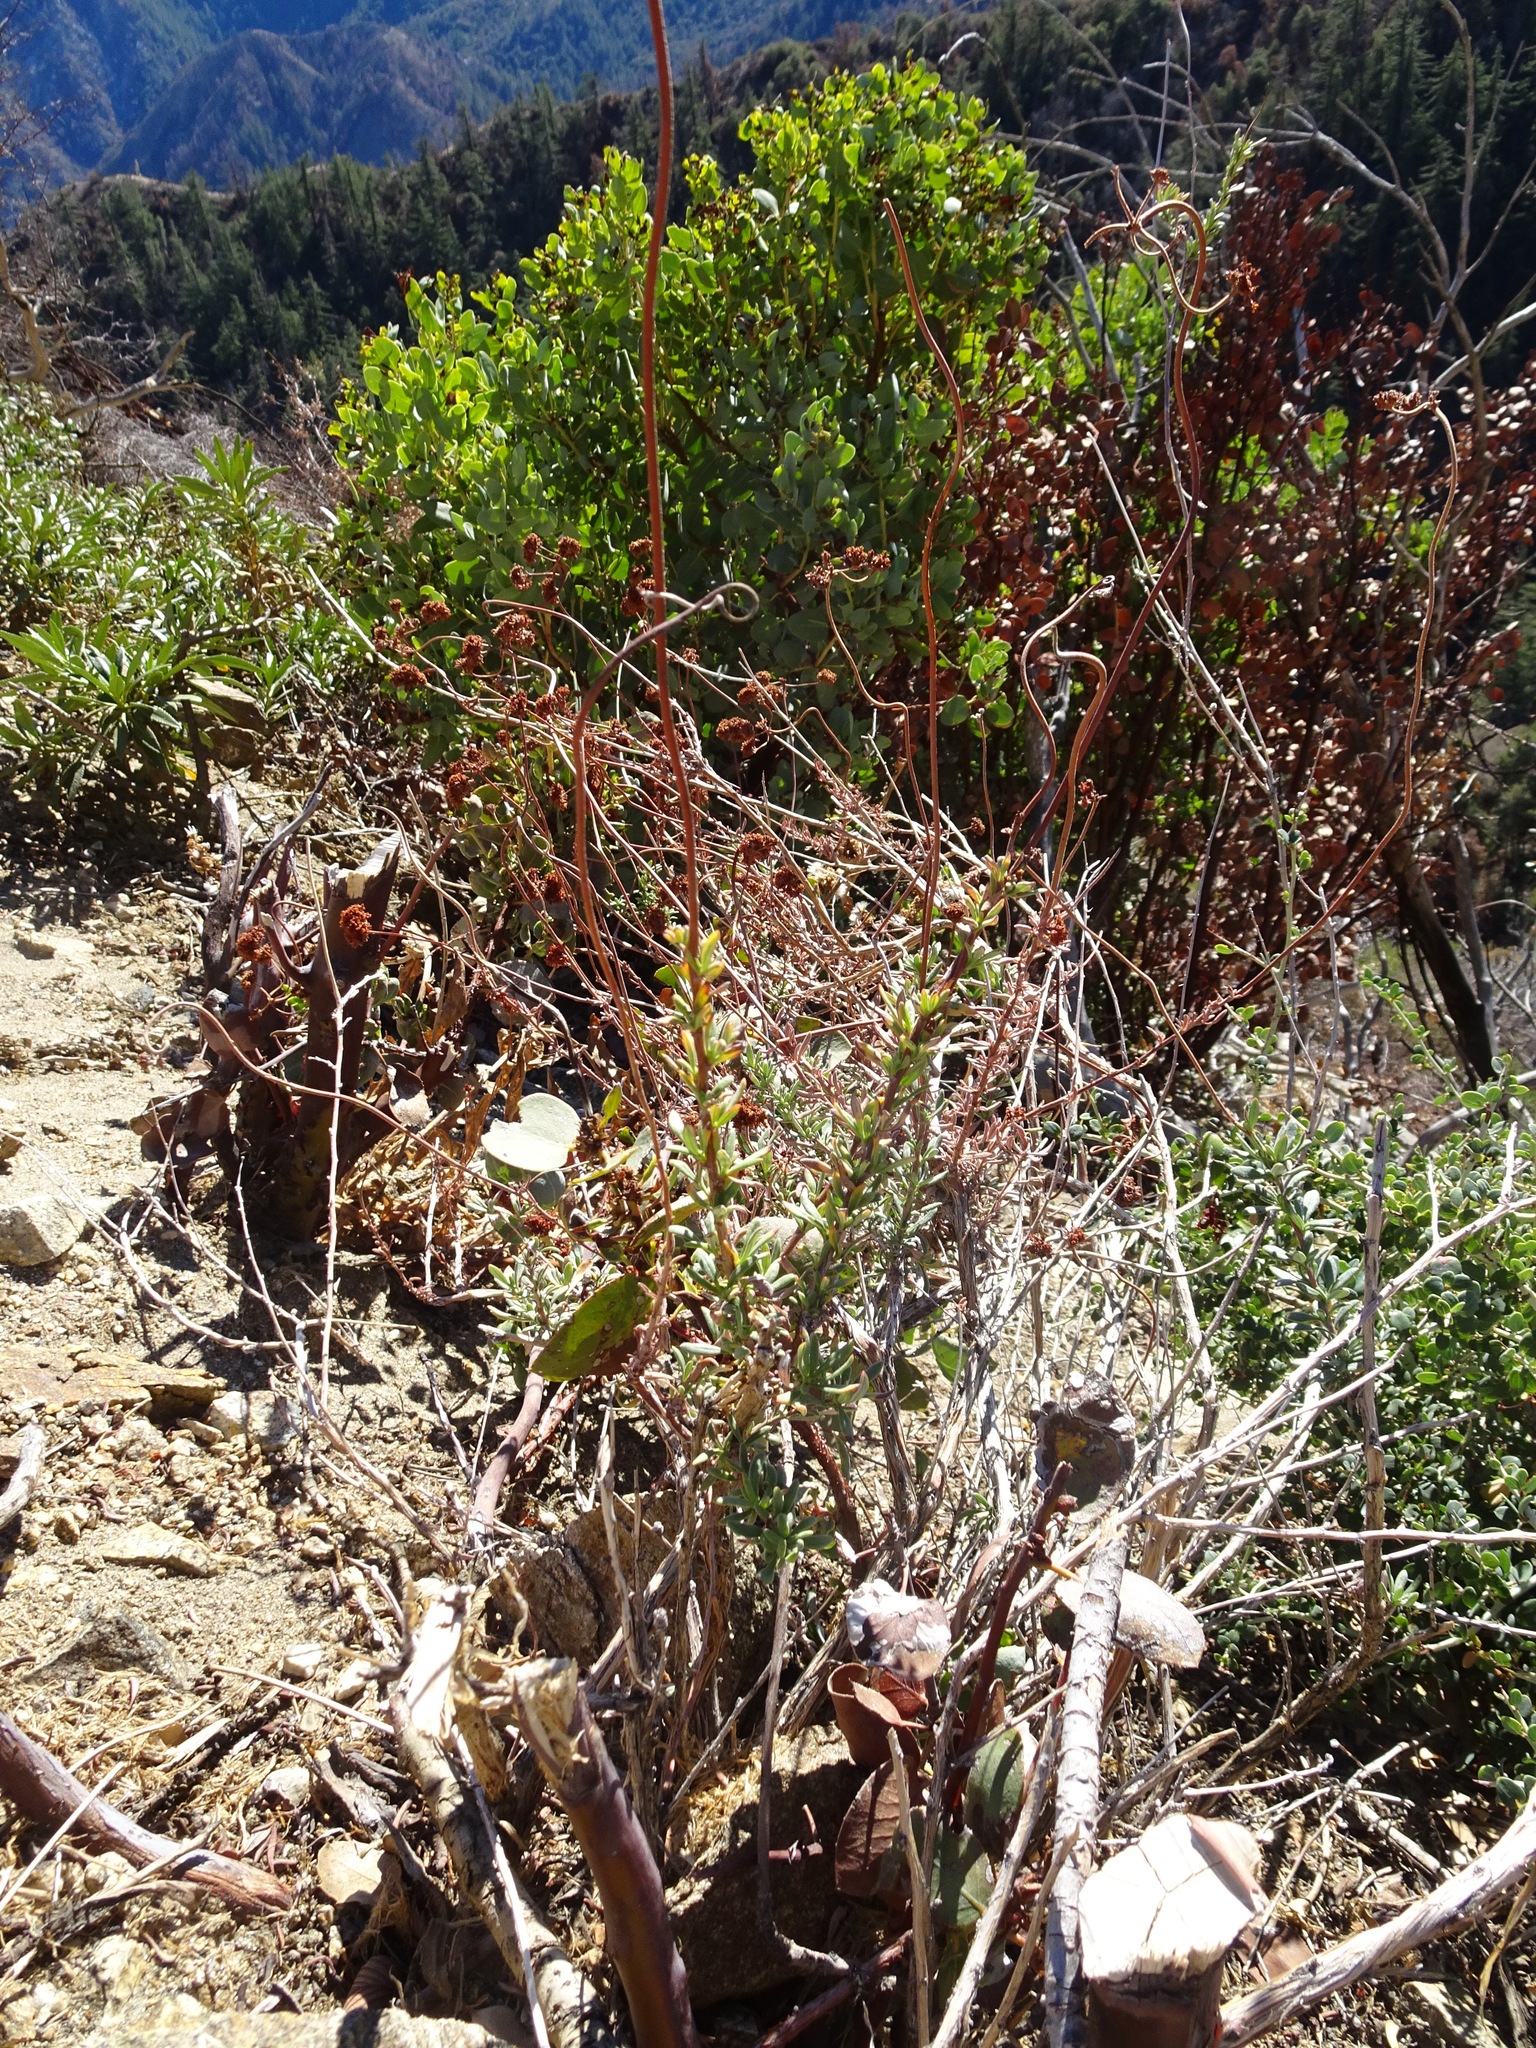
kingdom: Plantae
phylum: Tracheophyta
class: Magnoliopsida
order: Caryophyllales
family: Polygonaceae
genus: Eriogonum
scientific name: Eriogonum fasciculatum
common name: California wild buckwheat
